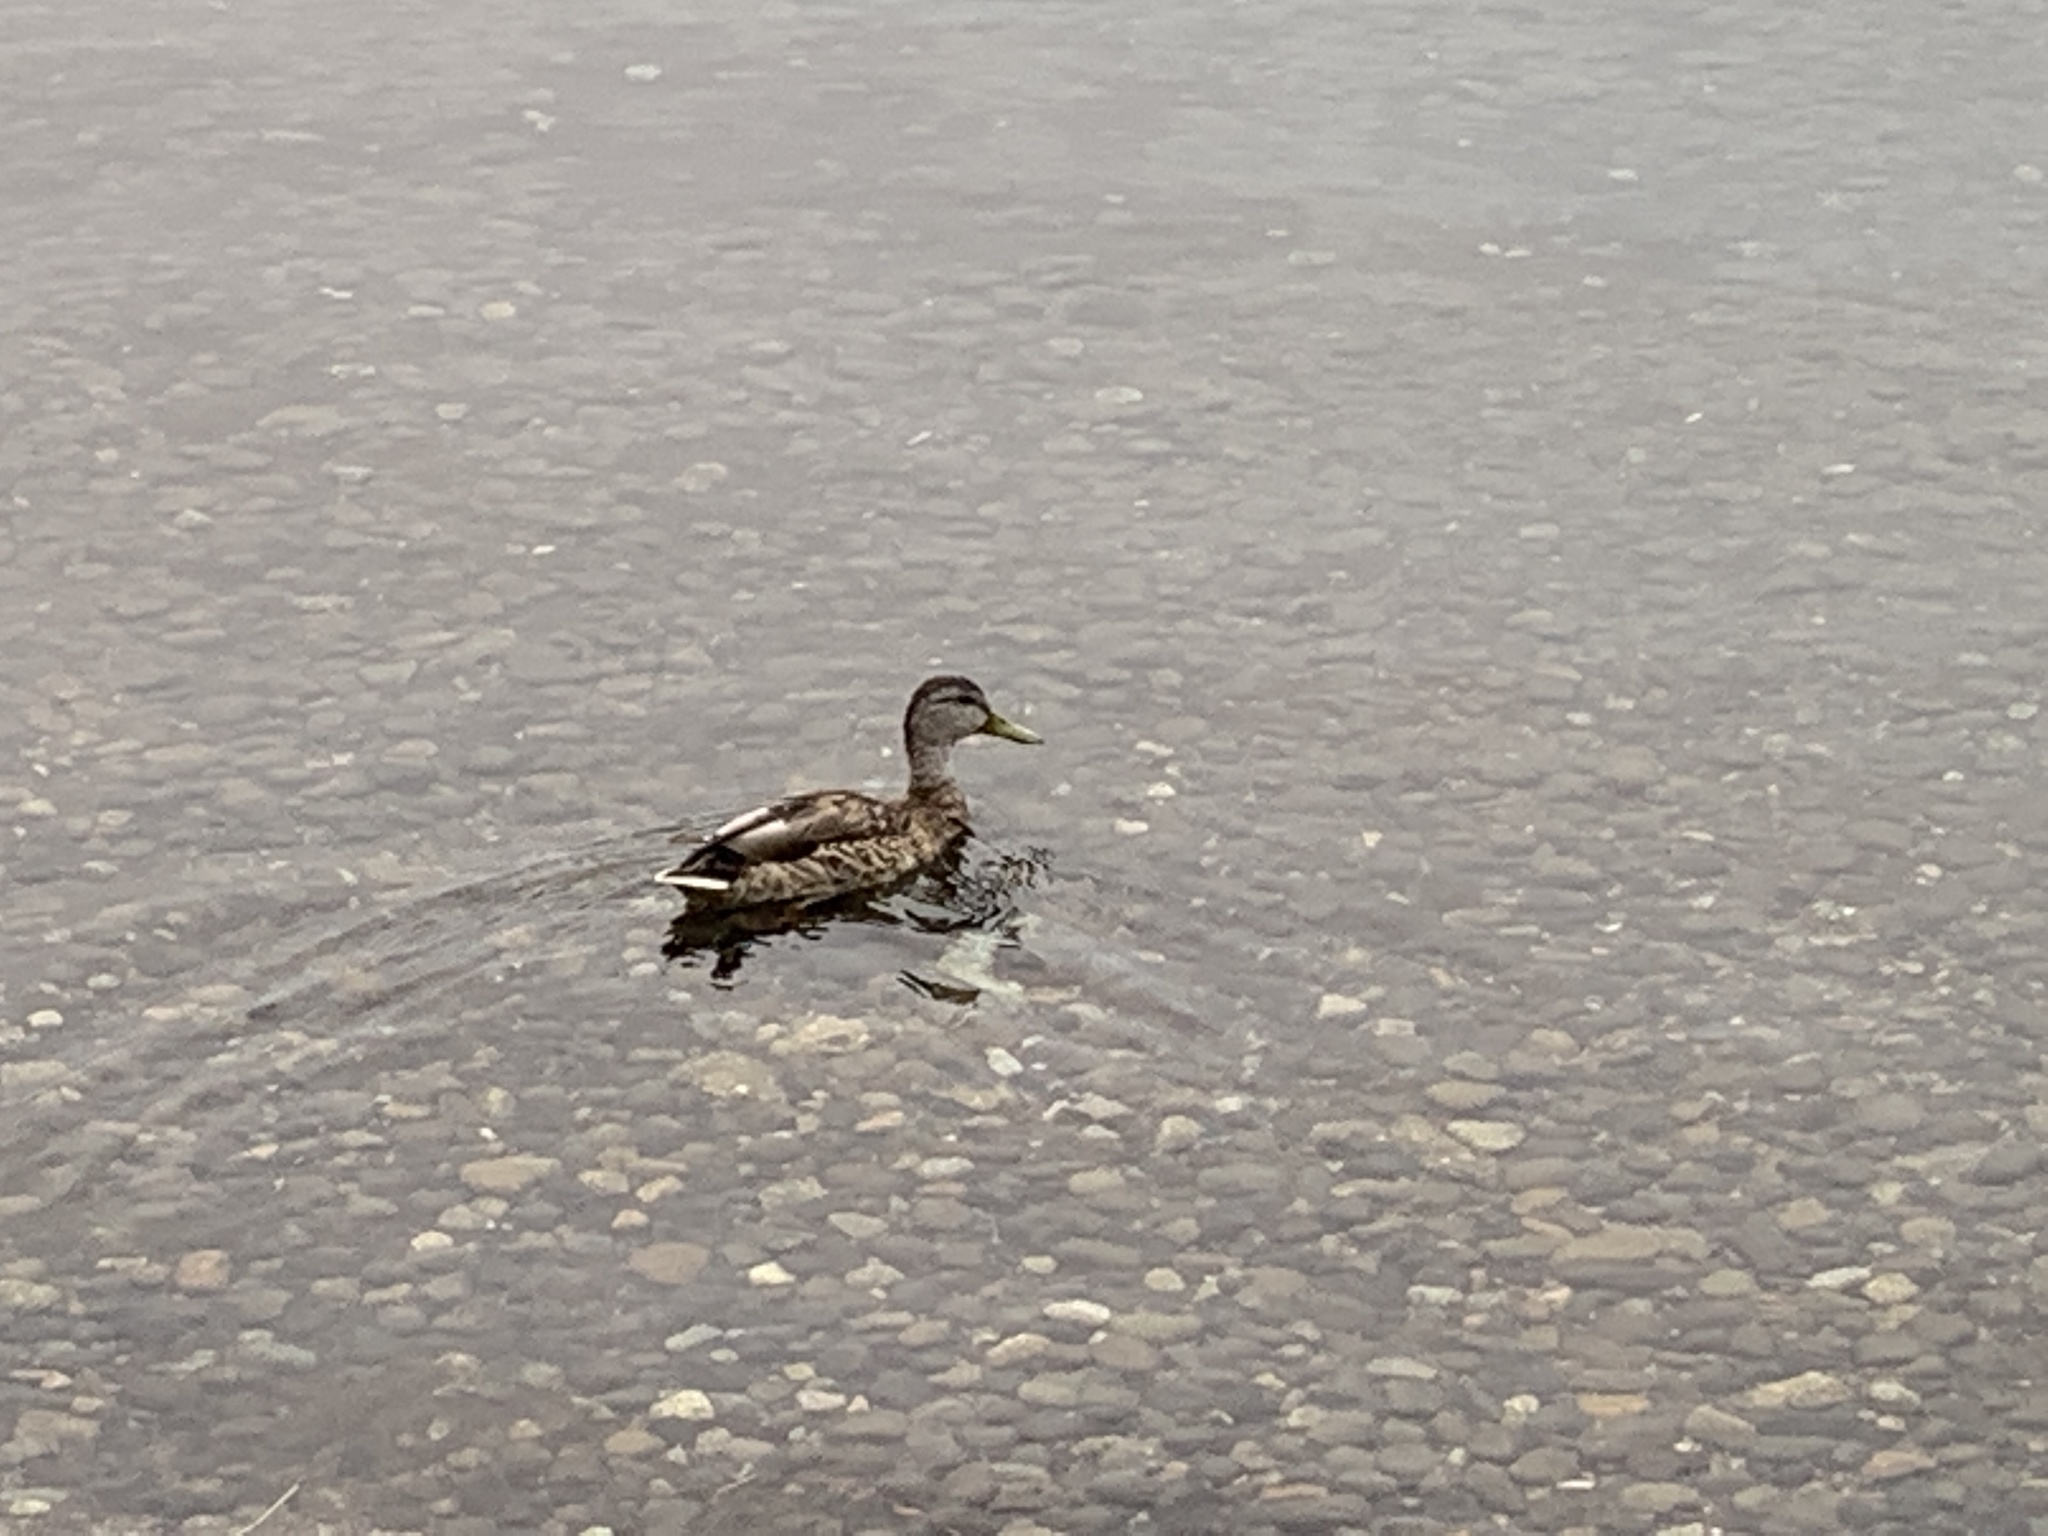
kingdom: Animalia
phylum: Chordata
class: Aves
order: Anseriformes
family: Anatidae
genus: Anas
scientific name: Anas platyrhynchos
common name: Mallard
